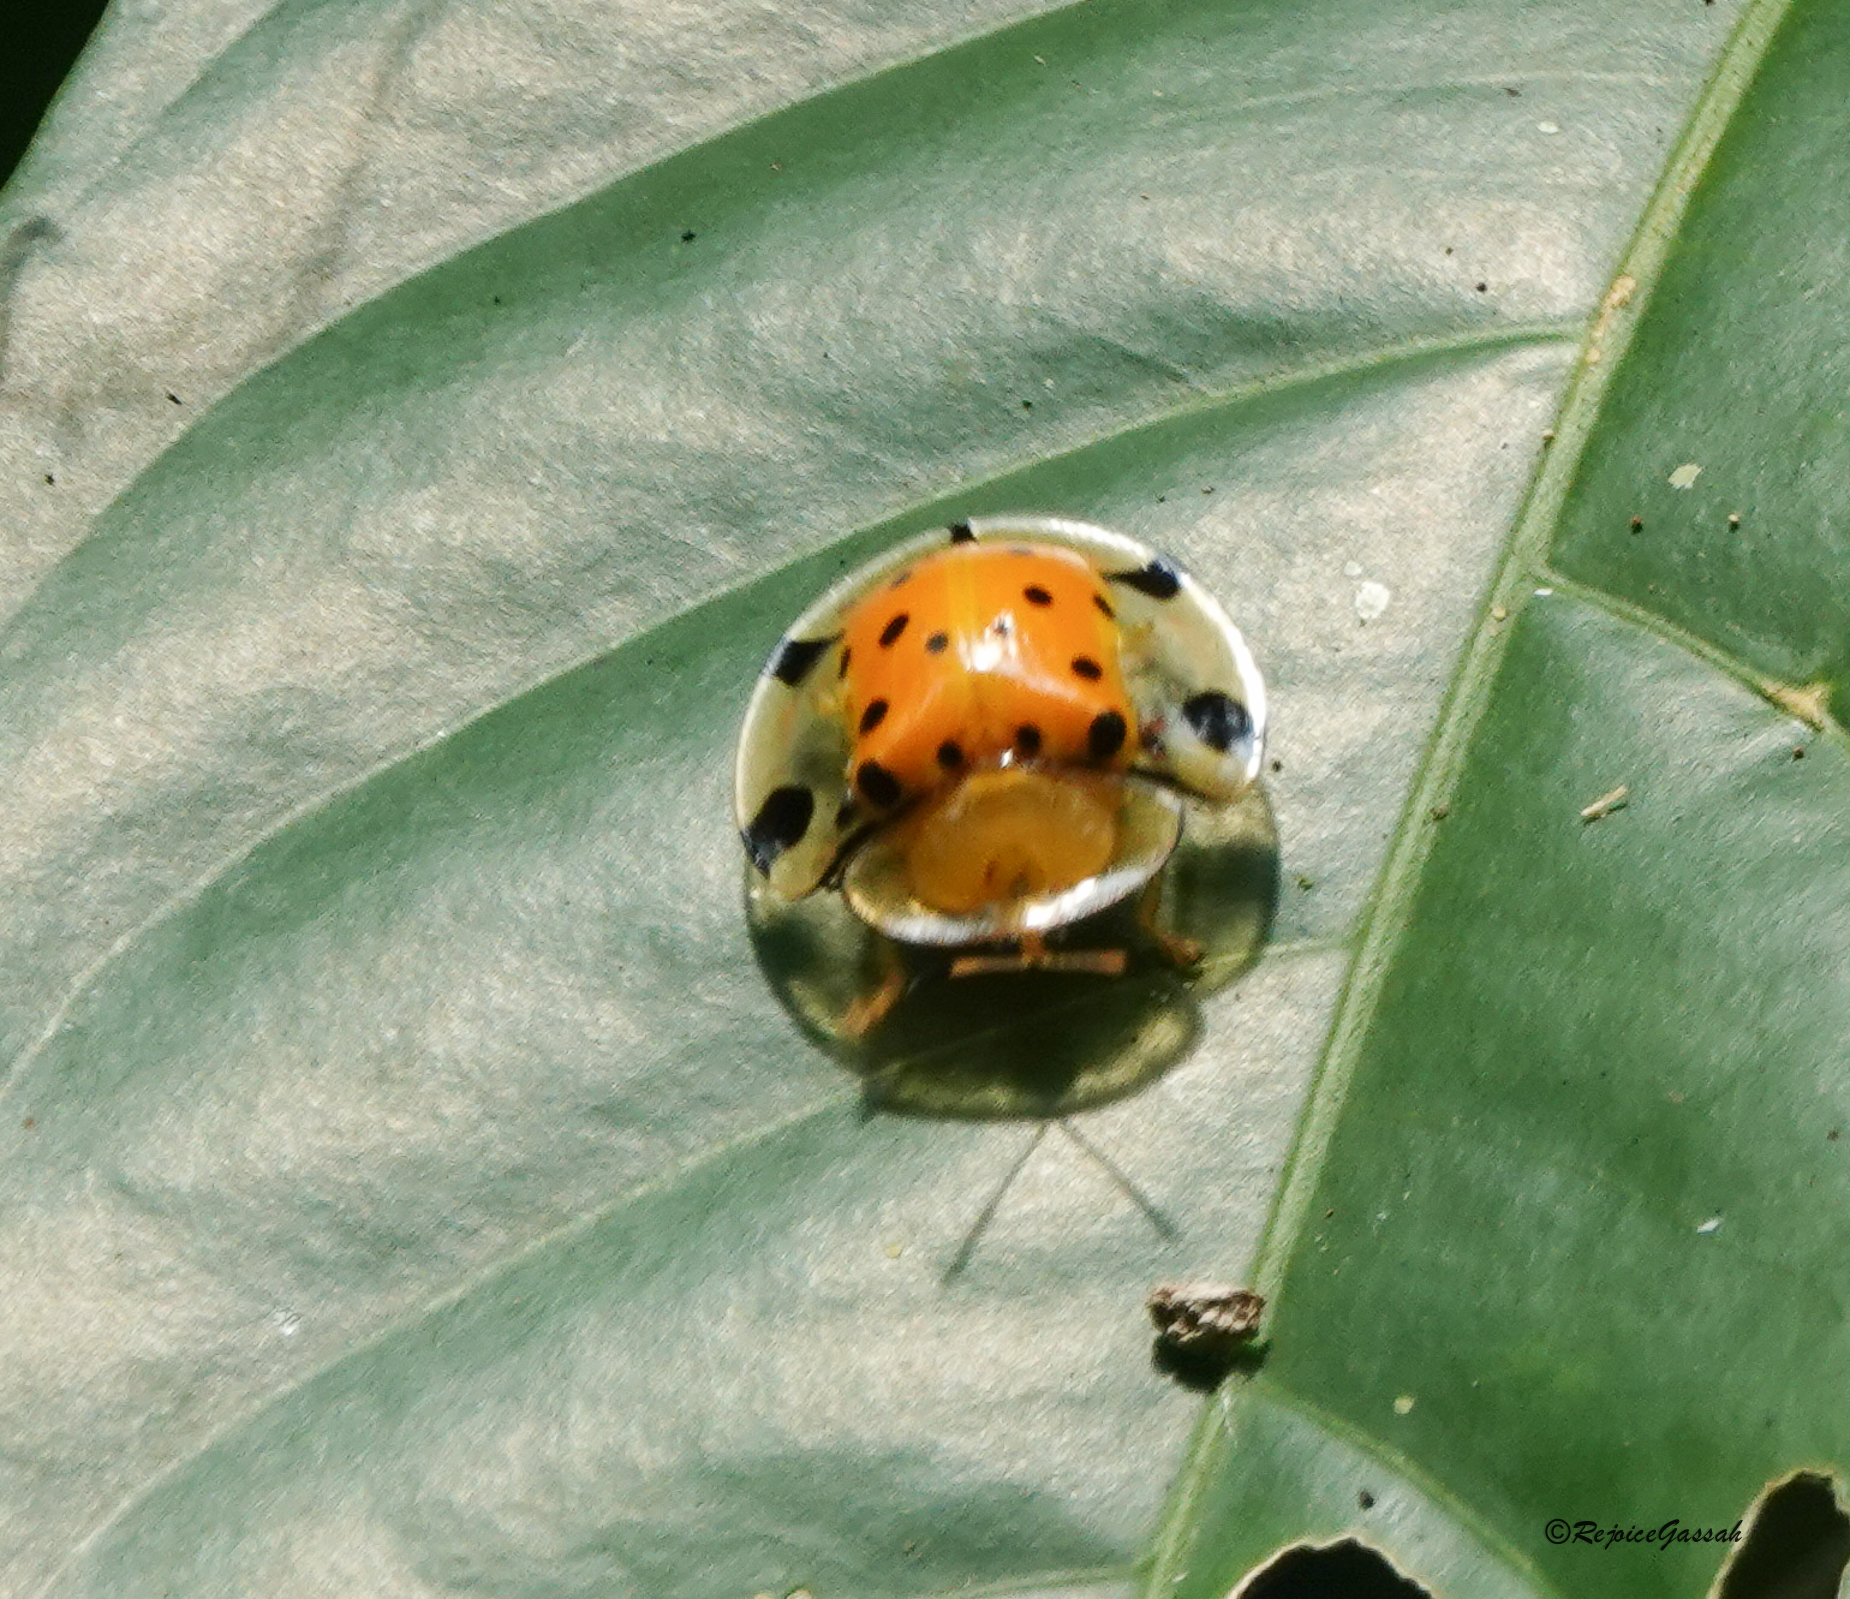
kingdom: Animalia
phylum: Arthropoda
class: Insecta
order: Coleoptera
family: Chrysomelidae
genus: Aspidimorpha
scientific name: Aspidimorpha miliaris
